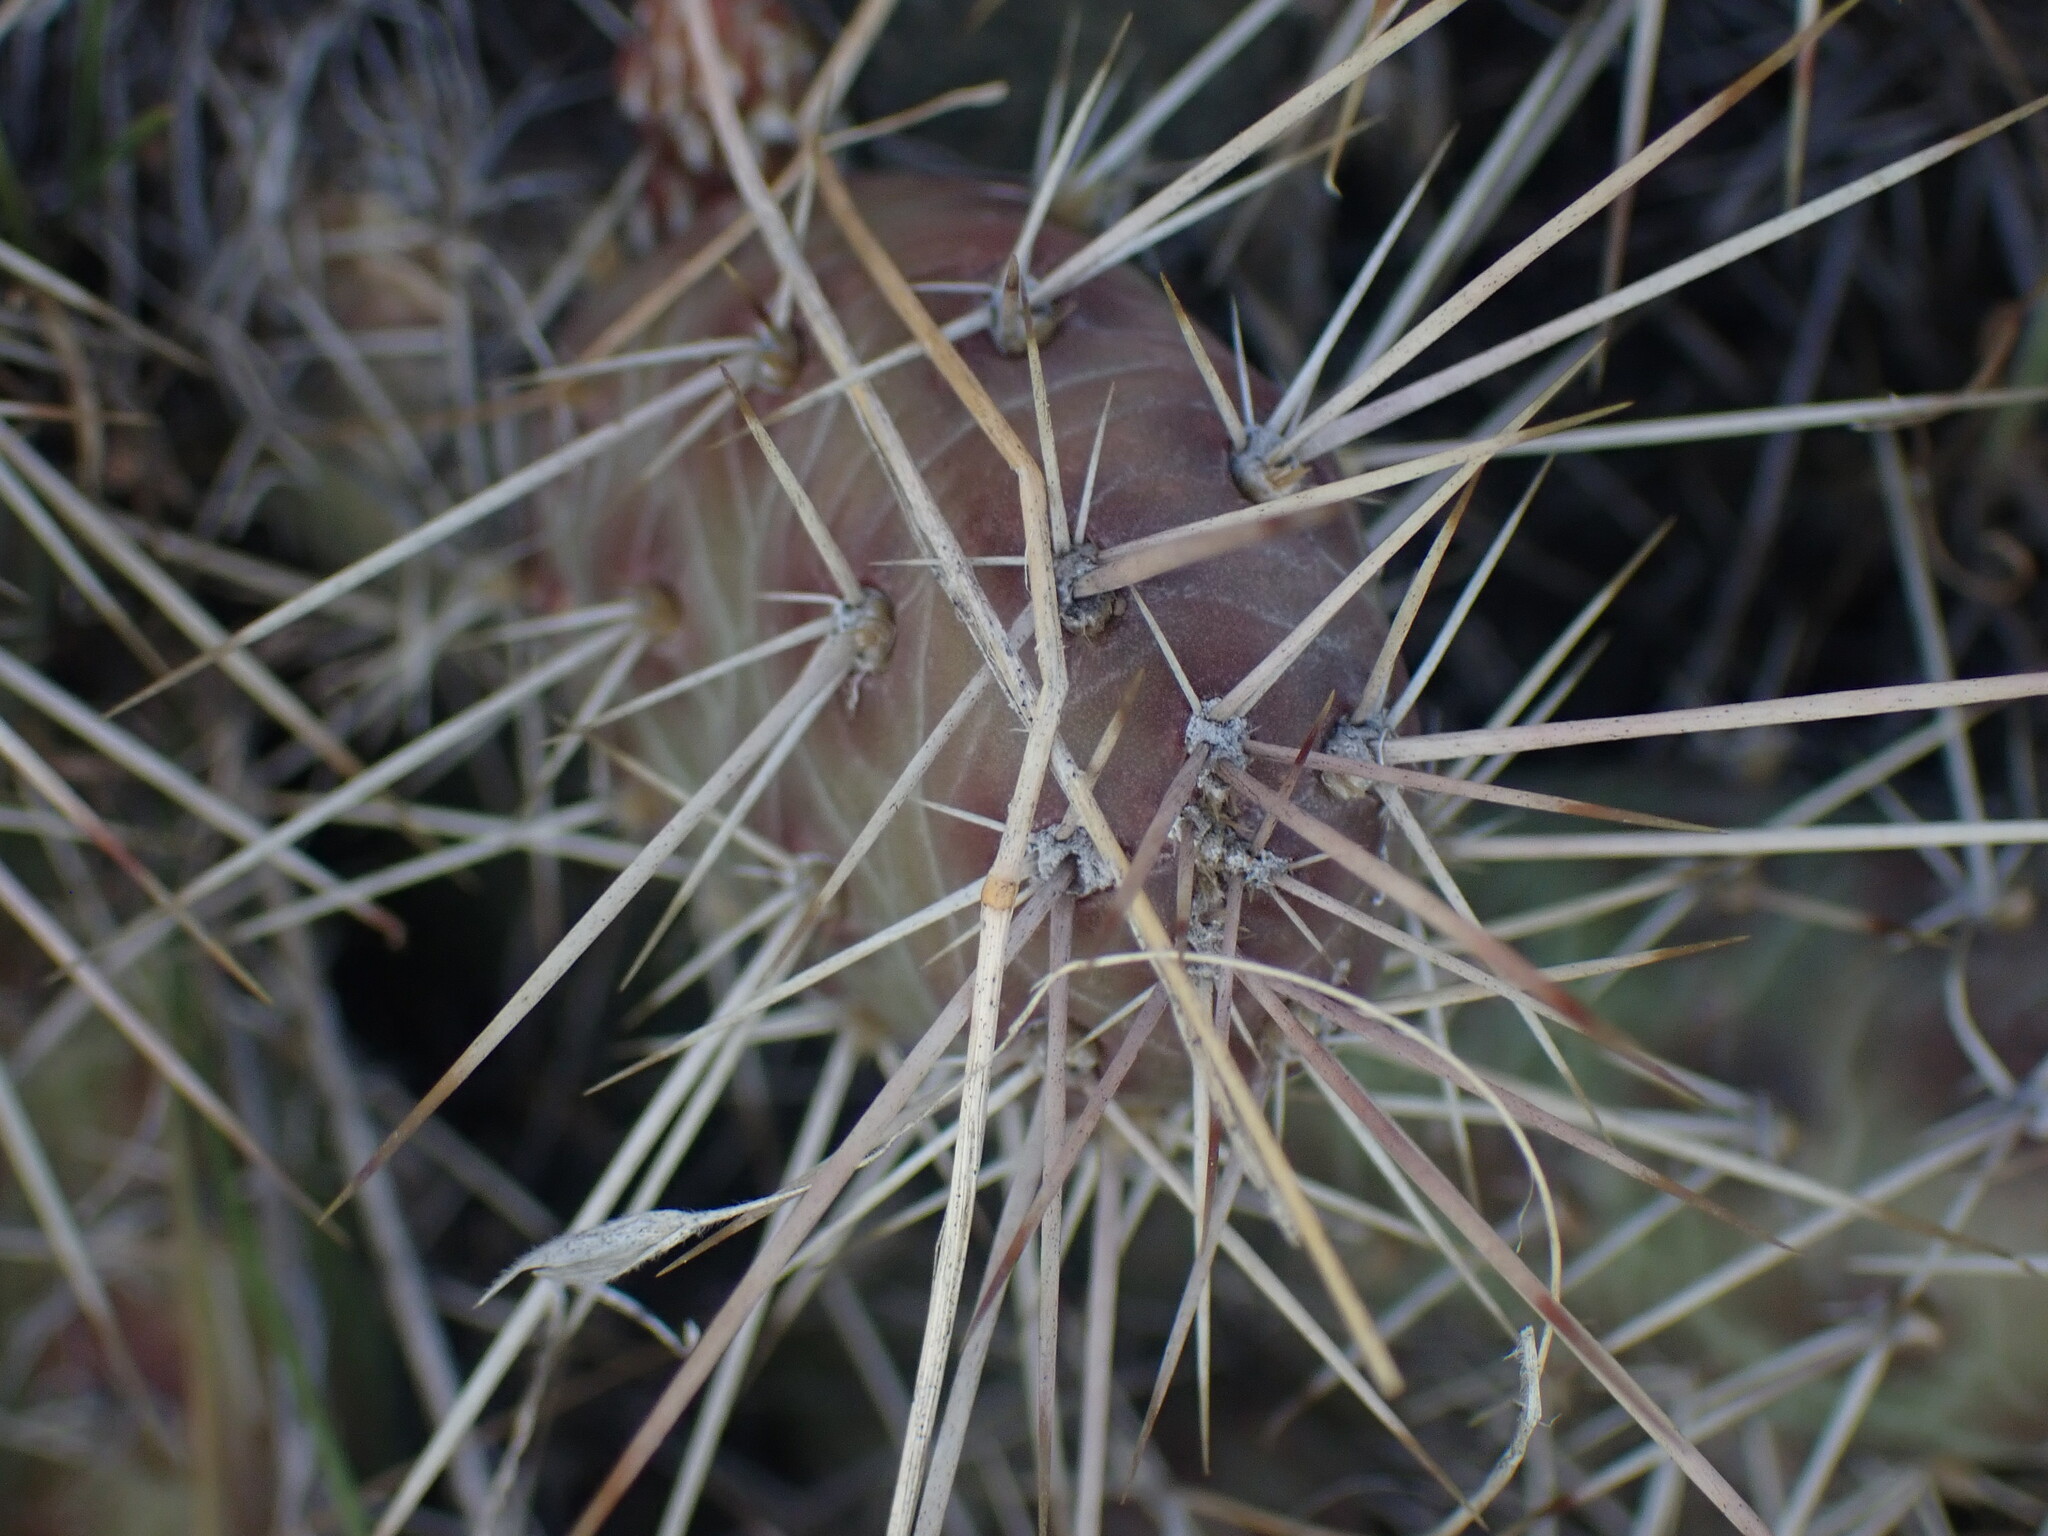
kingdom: Plantae
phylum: Tracheophyta
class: Magnoliopsida
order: Caryophyllales
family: Cactaceae
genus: Opuntia
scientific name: Opuntia fragilis
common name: Brittle cactus
